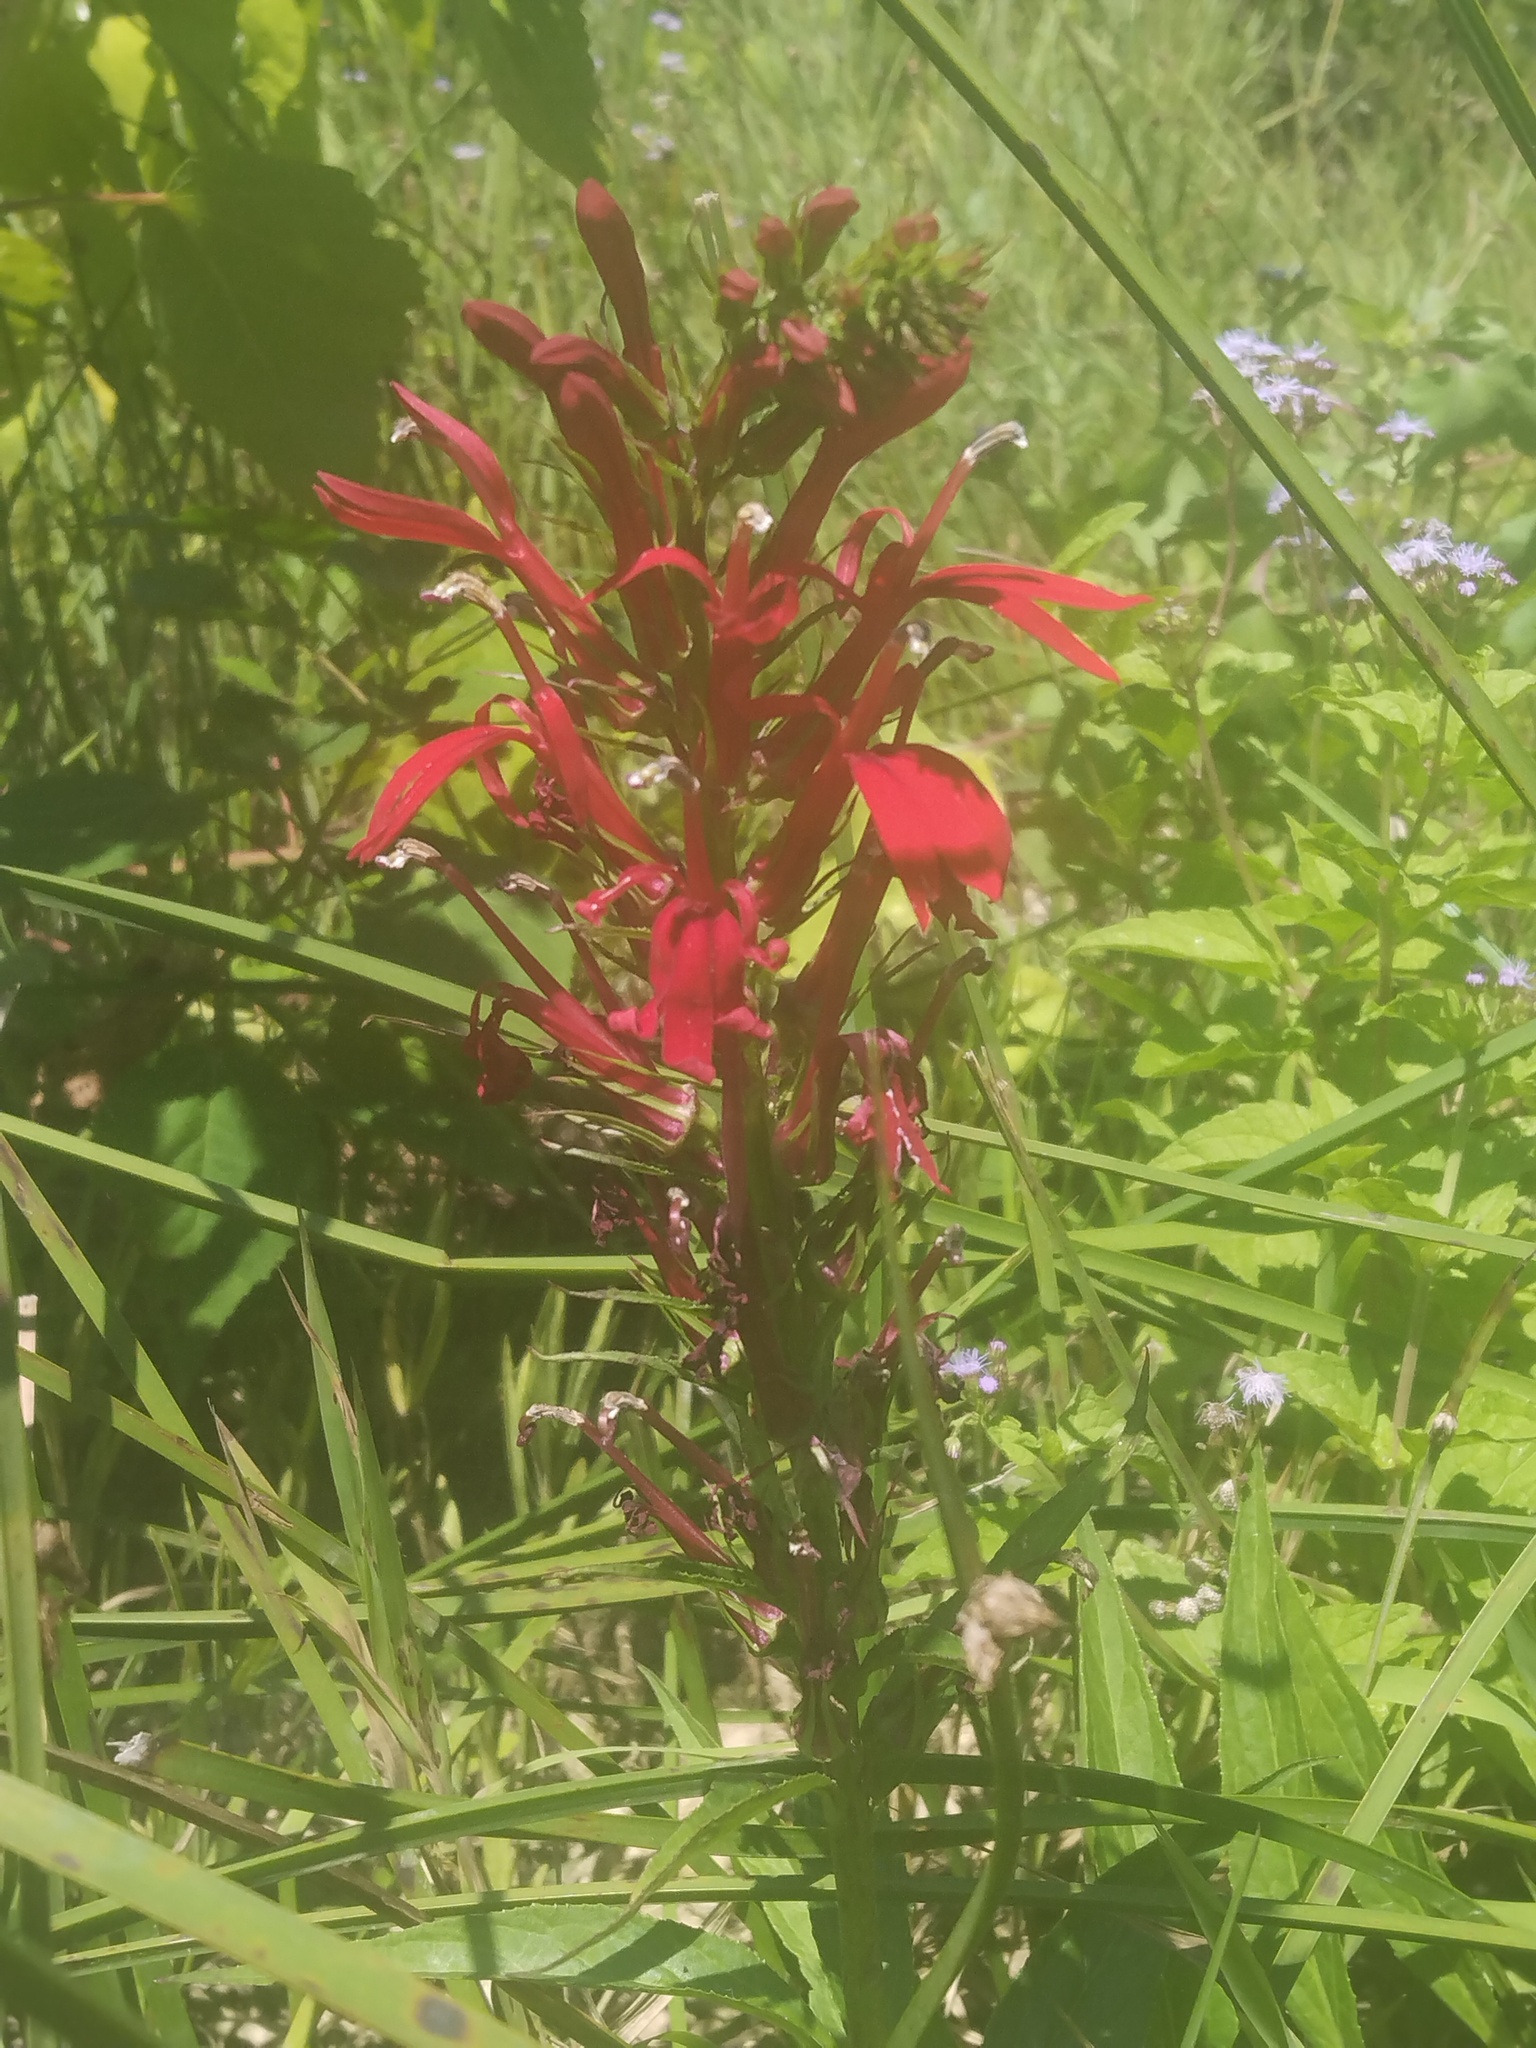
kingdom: Plantae
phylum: Tracheophyta
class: Magnoliopsida
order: Asterales
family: Campanulaceae
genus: Lobelia
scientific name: Lobelia cardinalis
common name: Cardinal flower
